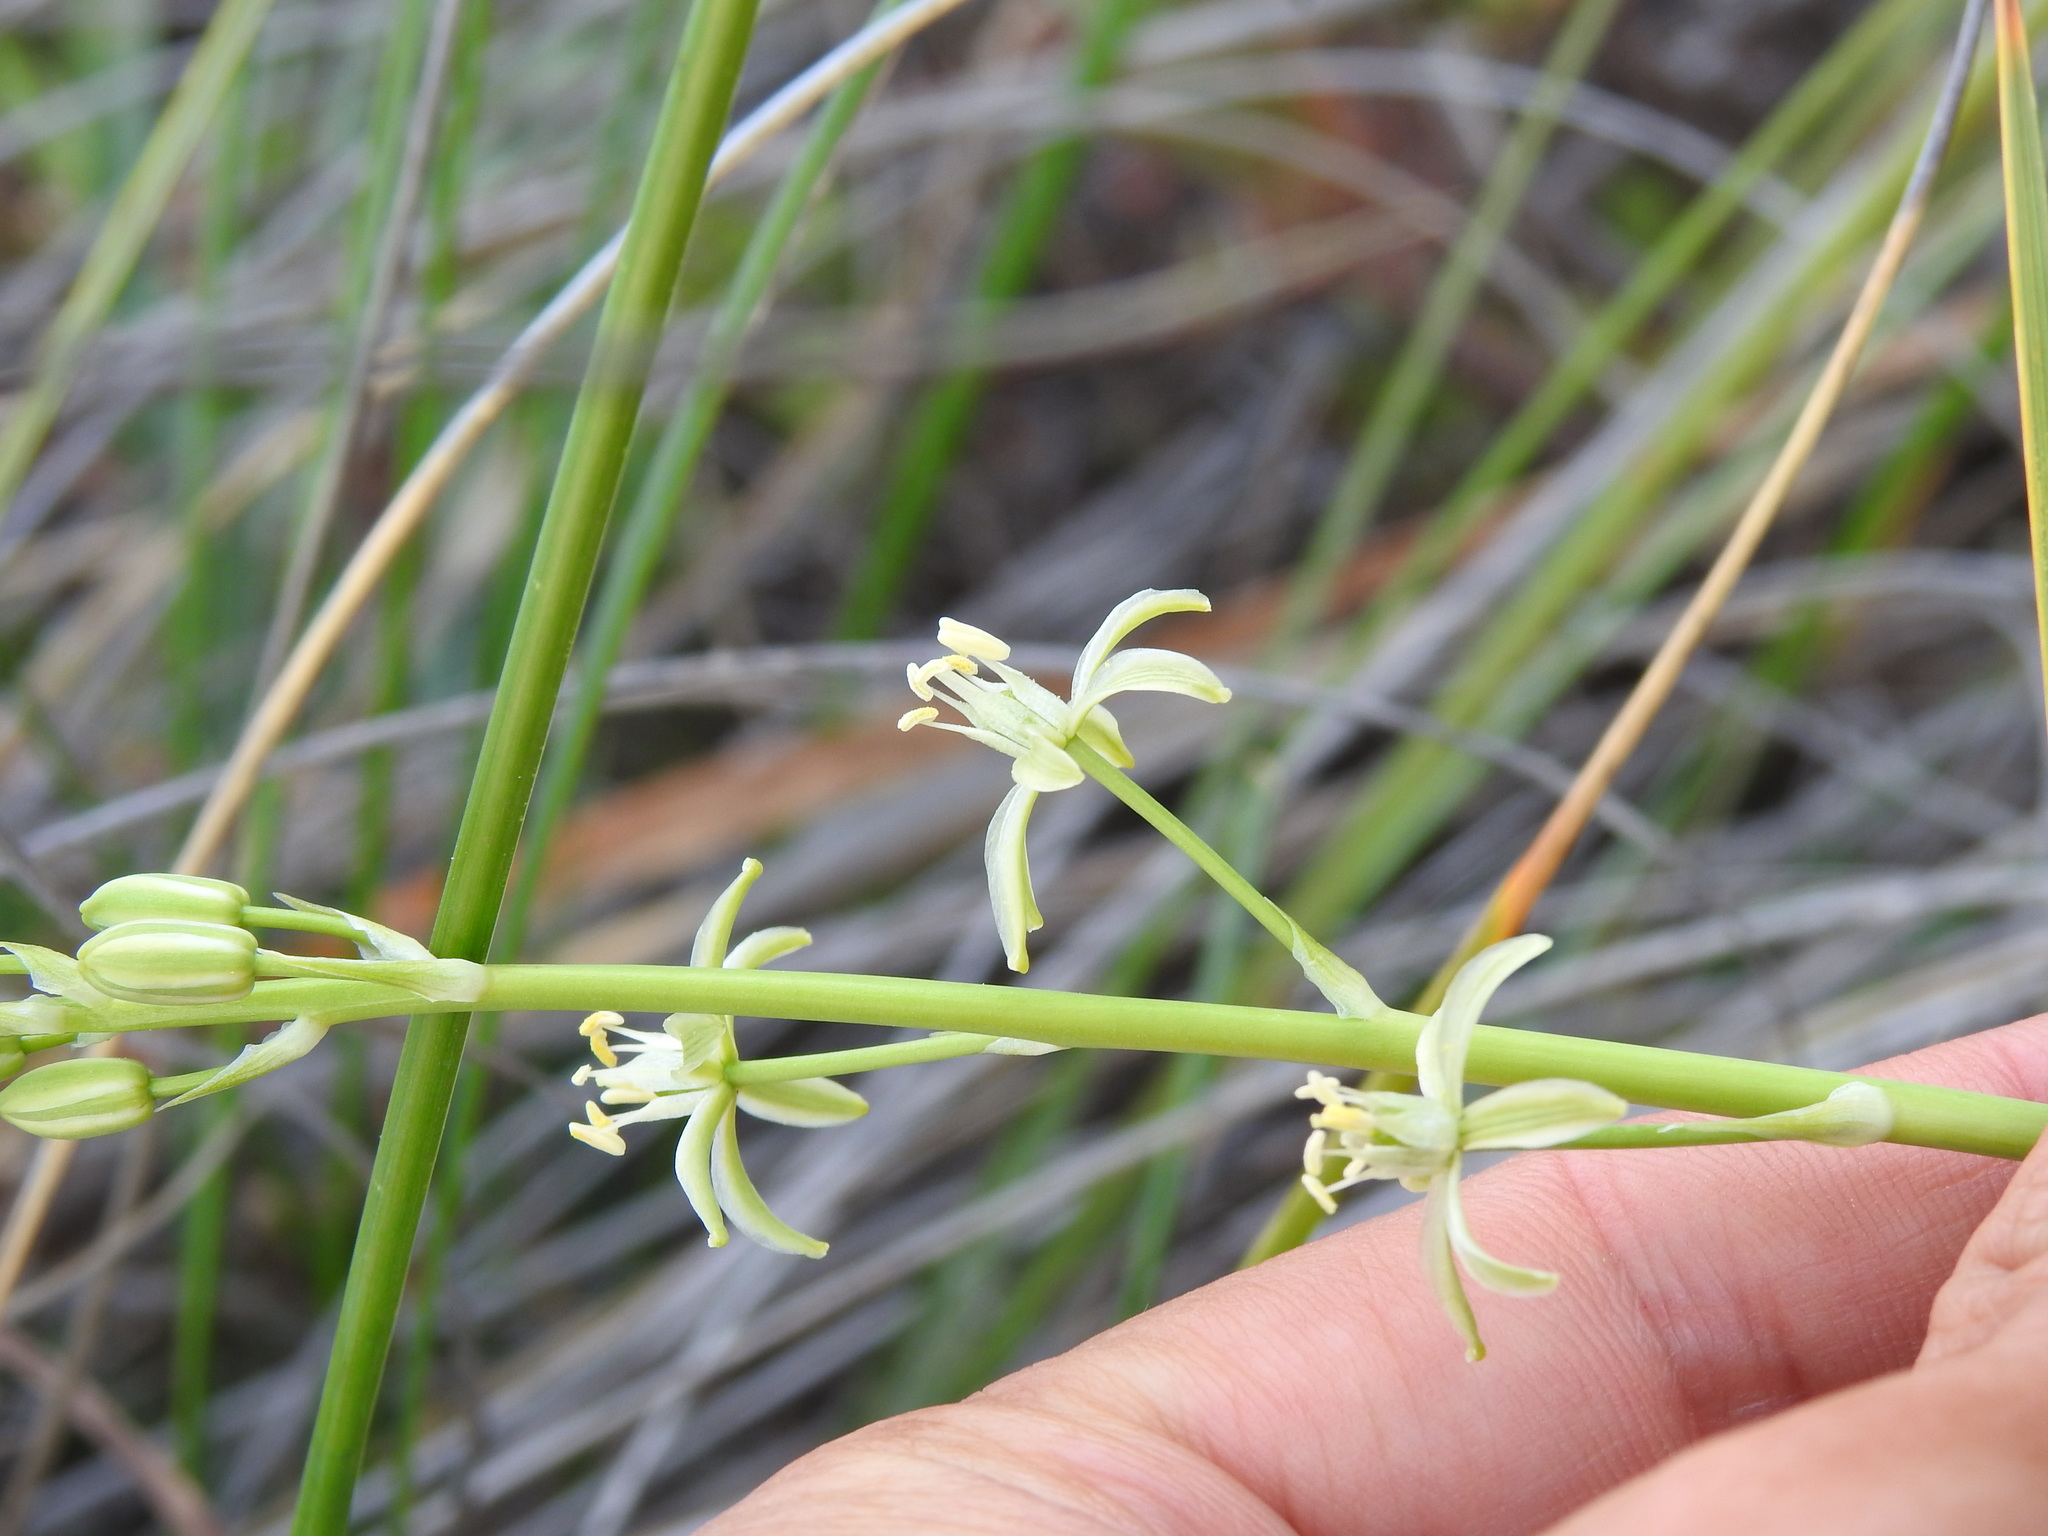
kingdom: Plantae
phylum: Tracheophyta
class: Liliopsida
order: Asparagales
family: Asparagaceae
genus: Ornithogalum
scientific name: Ornithogalum pyrenaicum
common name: Spiked star-of-bethlehem
